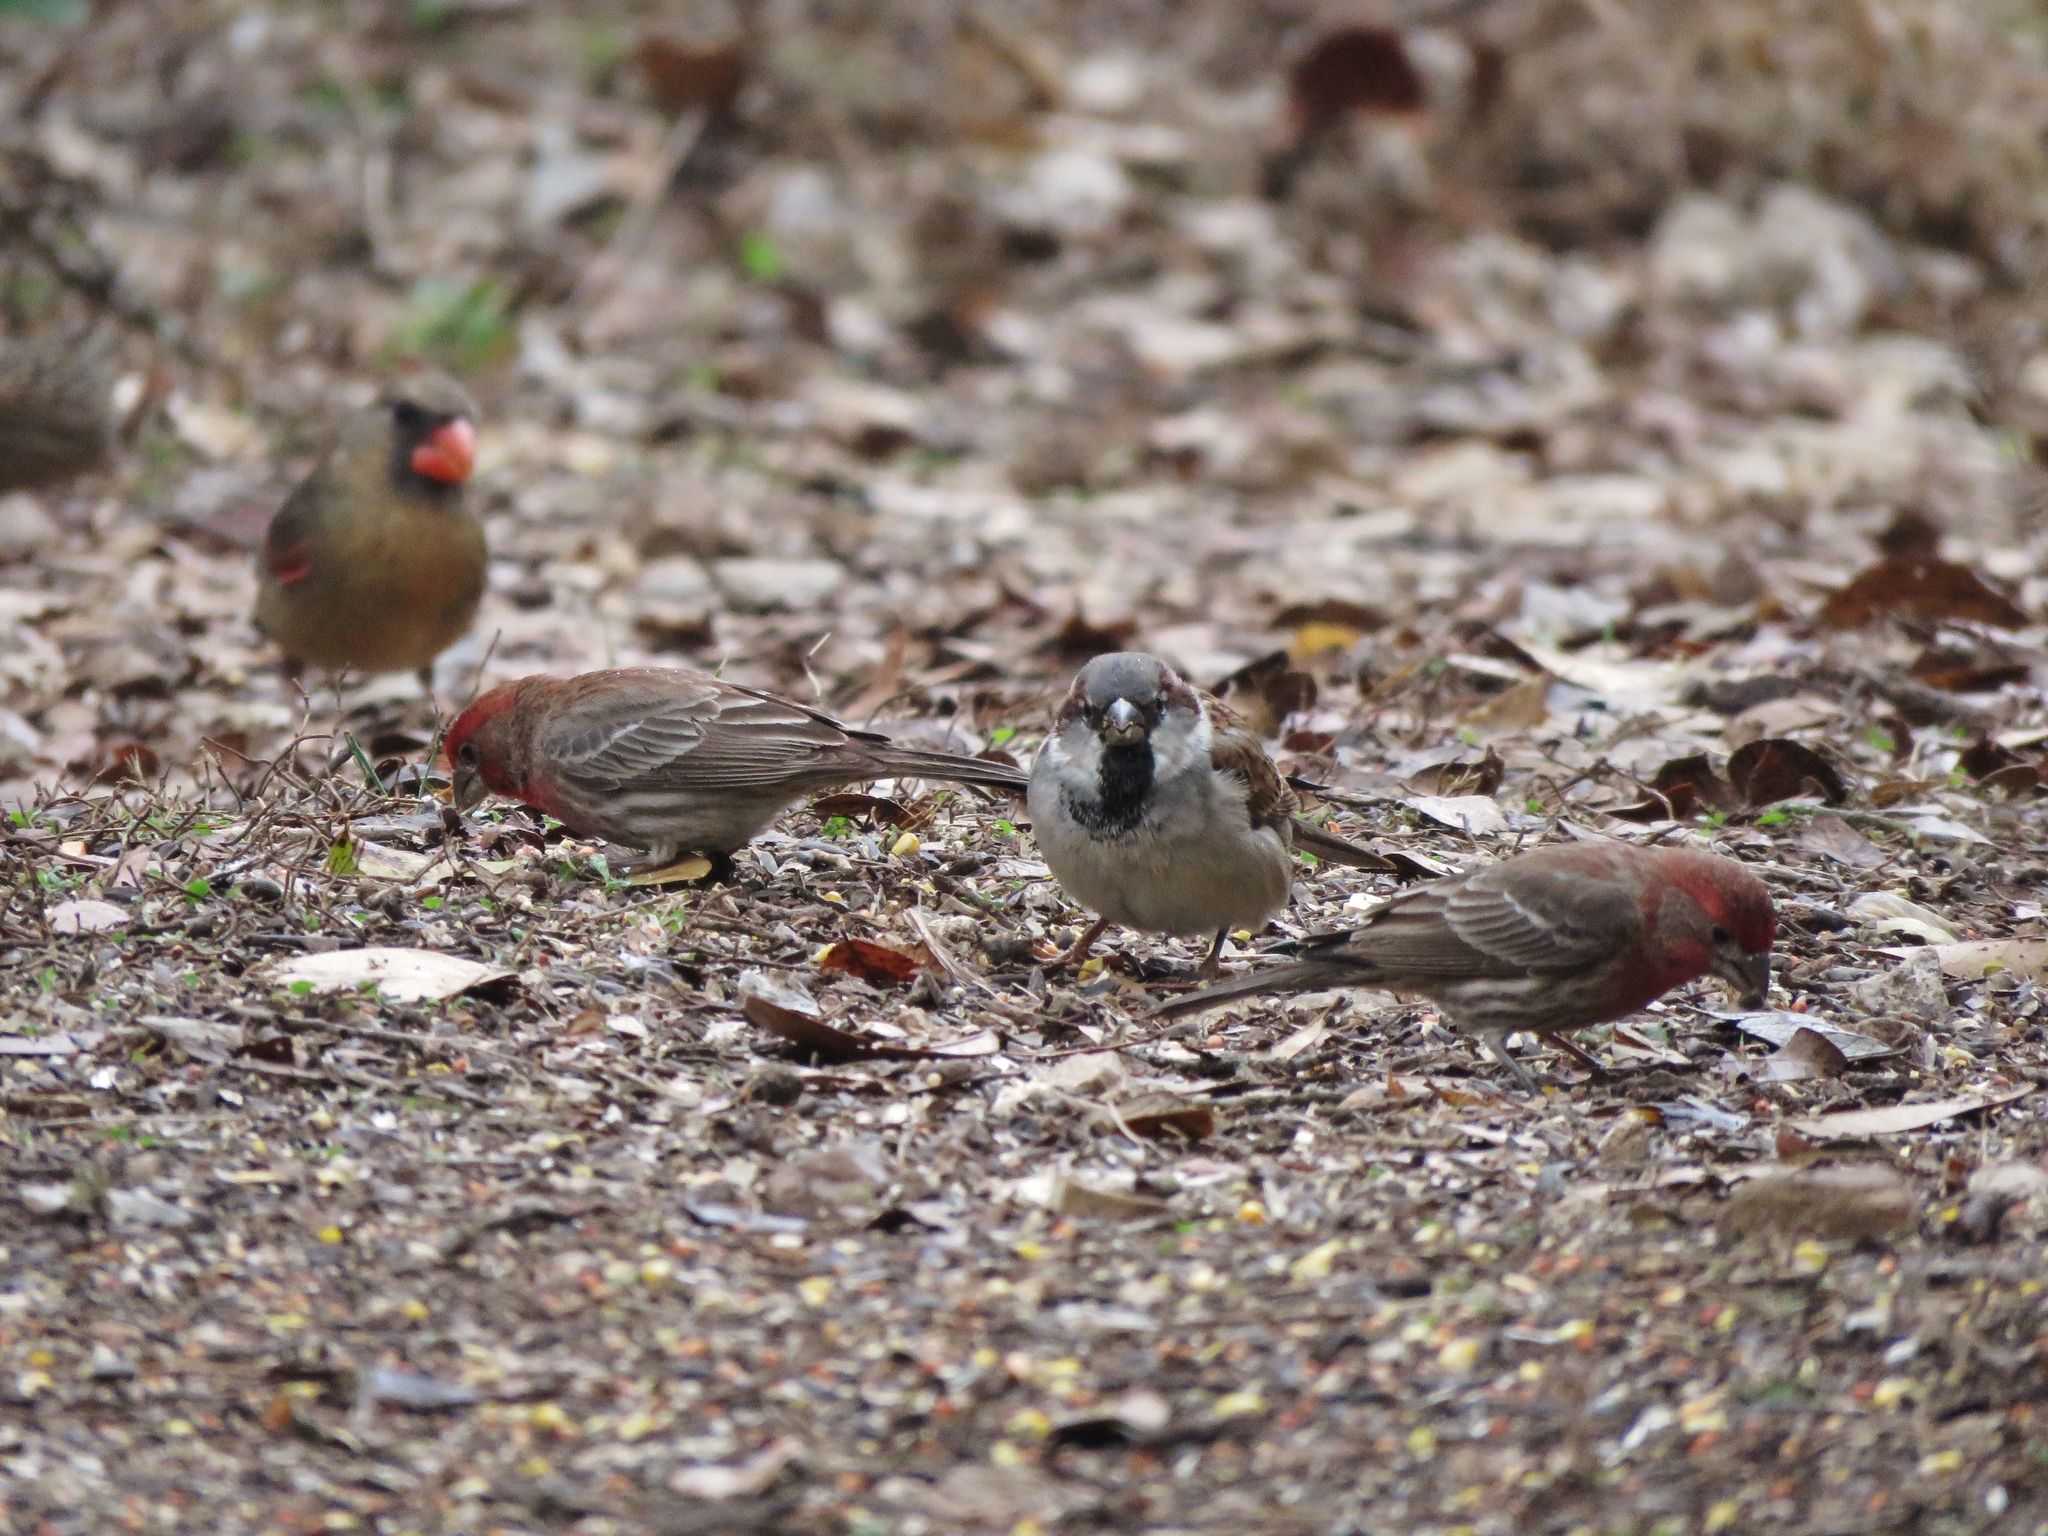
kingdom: Animalia
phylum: Chordata
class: Aves
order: Passeriformes
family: Passeridae
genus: Passer
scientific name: Passer domesticus
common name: House sparrow
